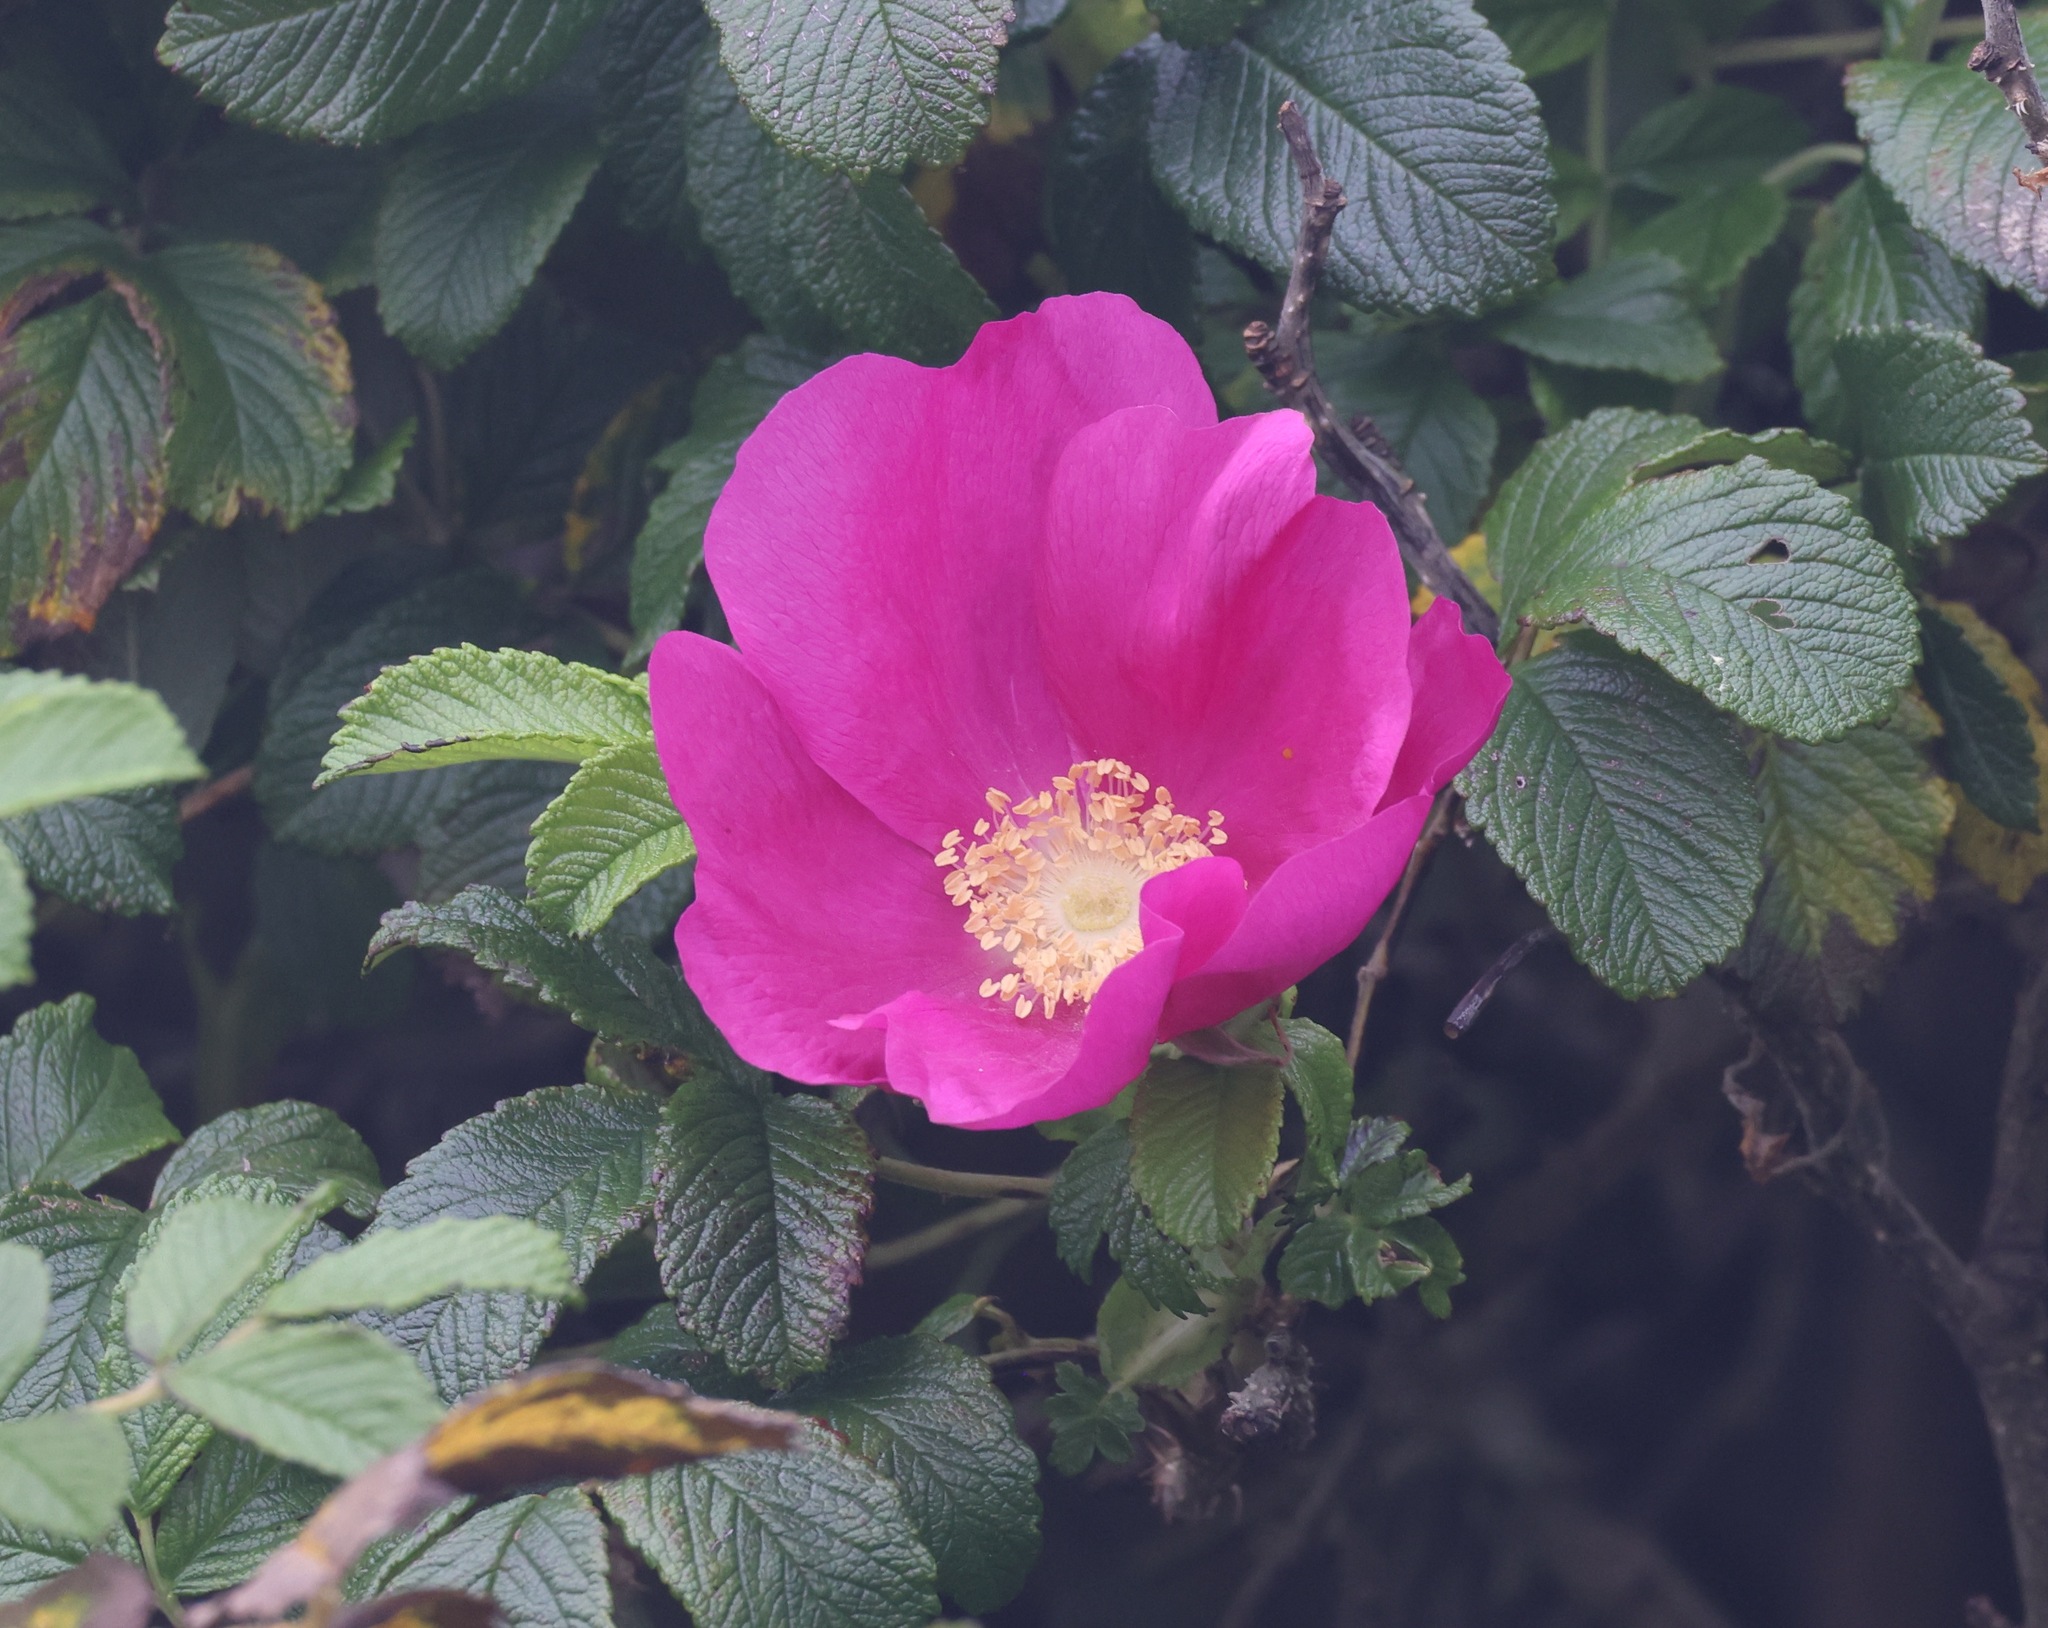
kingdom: Plantae
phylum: Tracheophyta
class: Magnoliopsida
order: Rosales
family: Rosaceae
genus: Rosa
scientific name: Rosa rugosa
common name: Japanese rose
